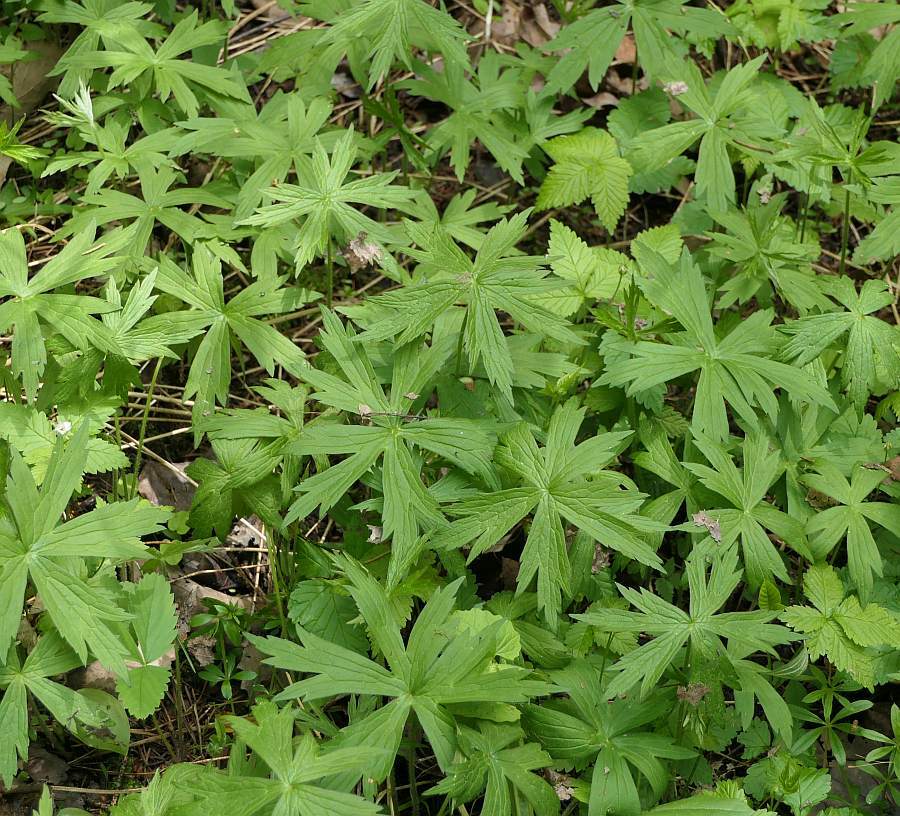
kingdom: Plantae
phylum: Tracheophyta
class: Magnoliopsida
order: Ranunculales
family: Ranunculaceae
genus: Anemonastrum
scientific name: Anemonastrum canadense
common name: Canada anemone
